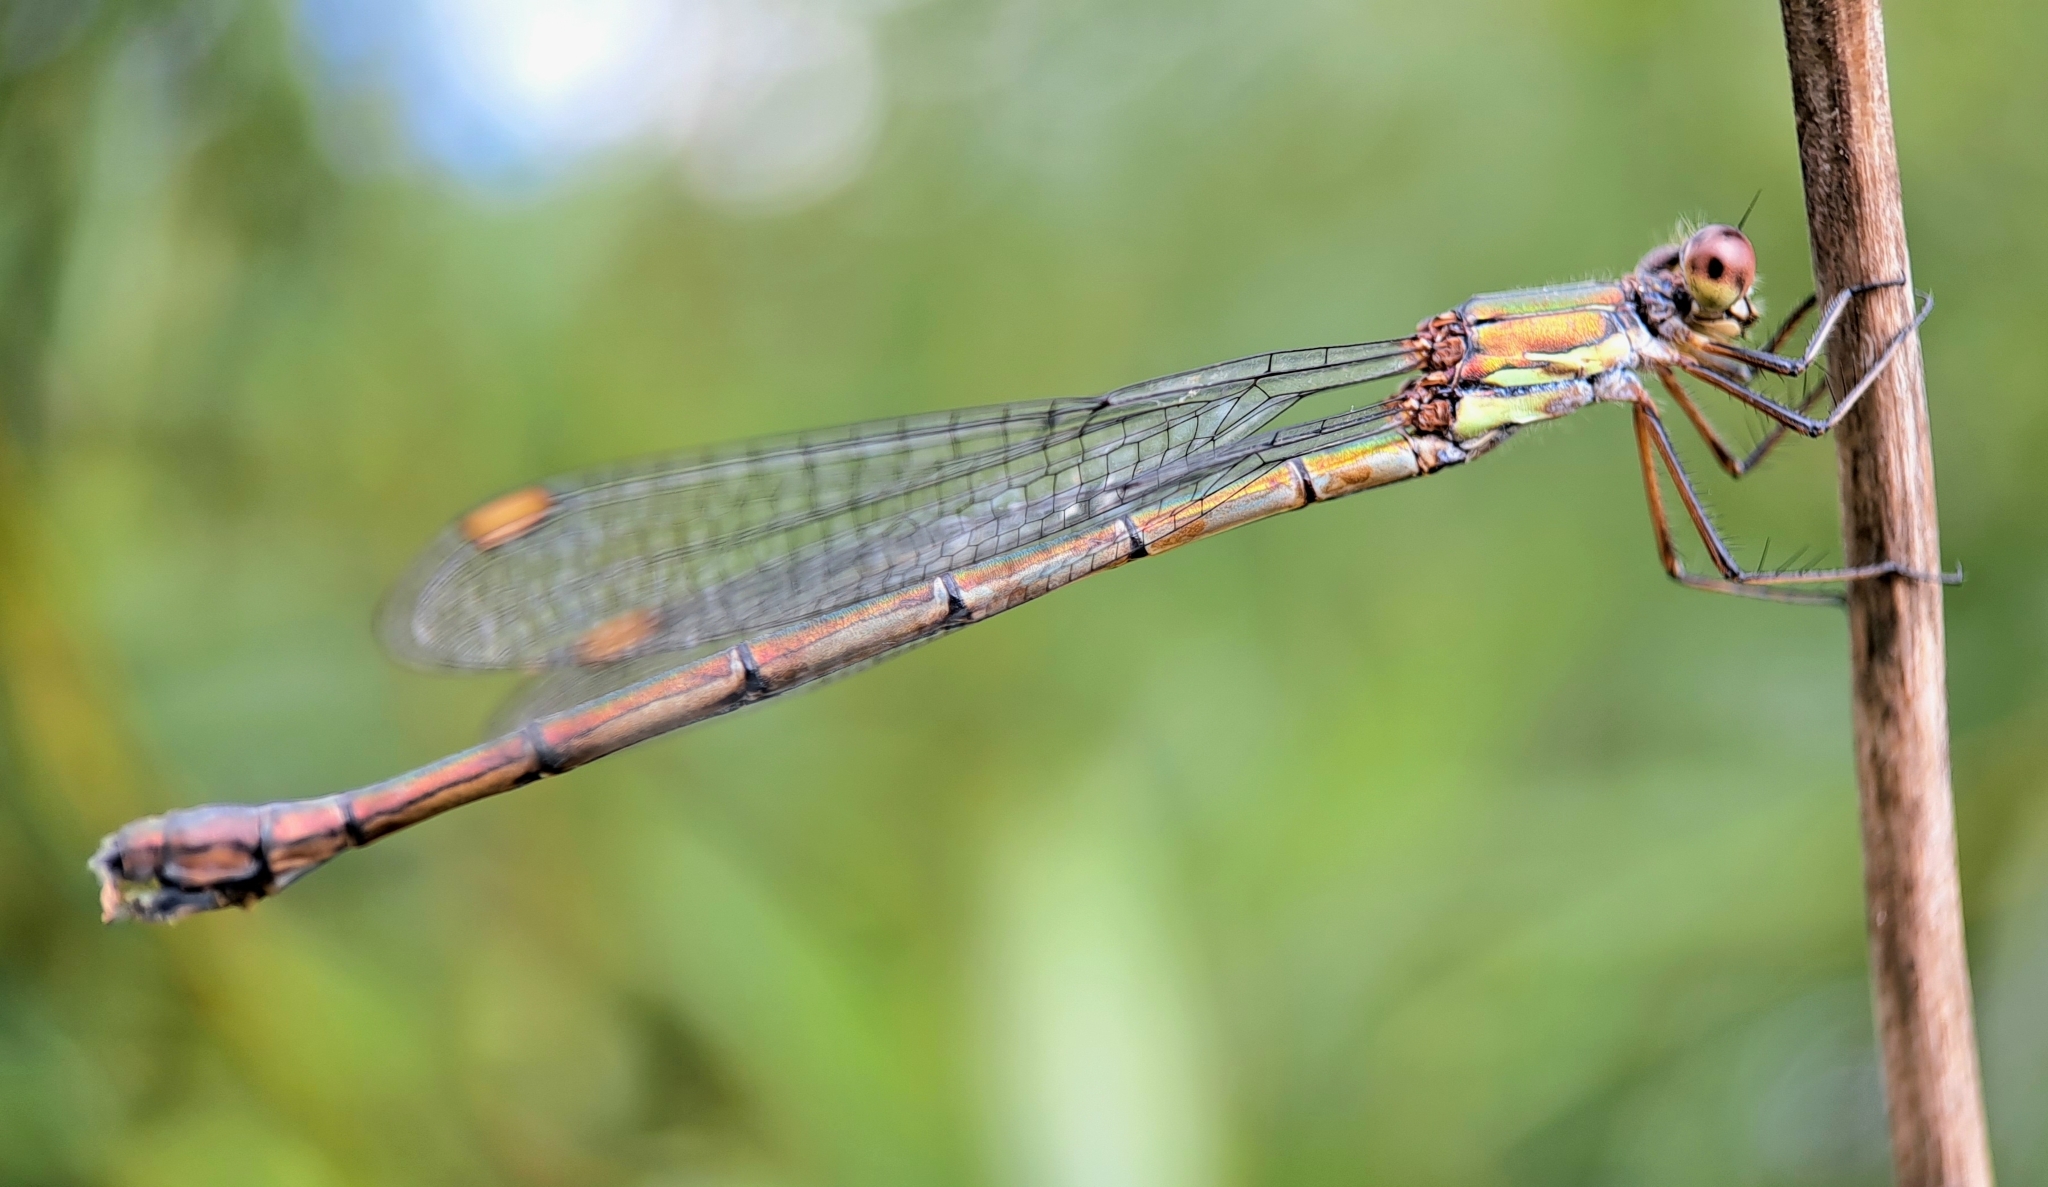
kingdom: Animalia
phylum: Arthropoda
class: Insecta
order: Odonata
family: Lestidae
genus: Chalcolestes
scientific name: Chalcolestes viridis
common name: Green emerald damselfly
